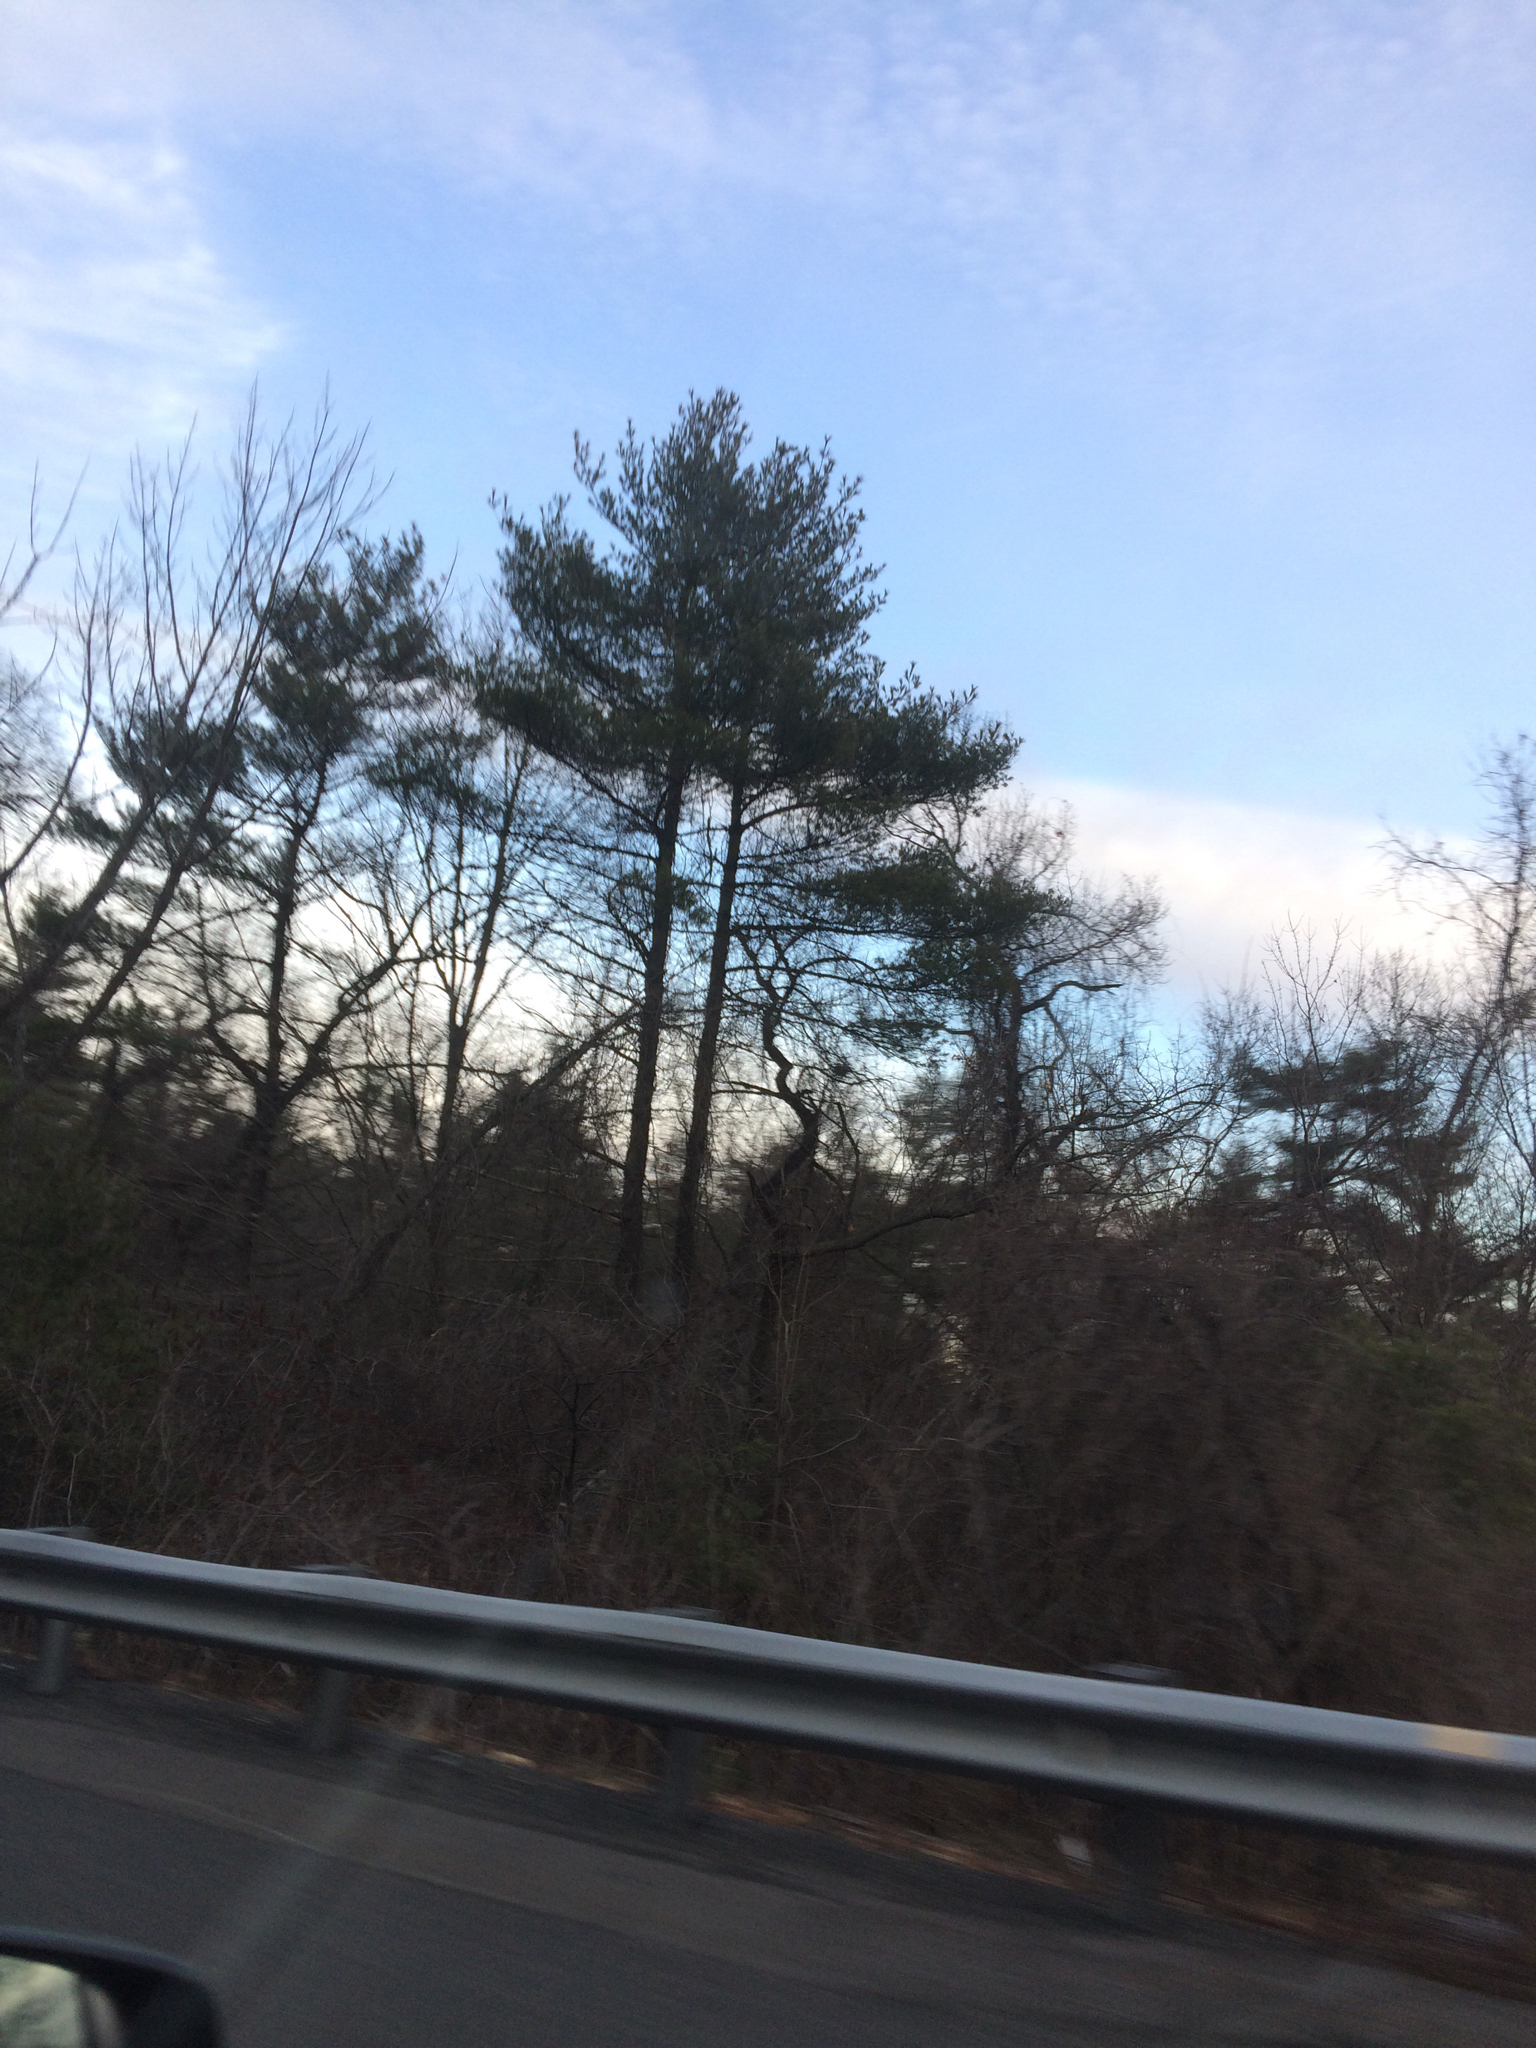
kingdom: Plantae
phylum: Tracheophyta
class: Pinopsida
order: Pinales
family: Pinaceae
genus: Pinus
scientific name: Pinus strobus
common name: Weymouth pine
